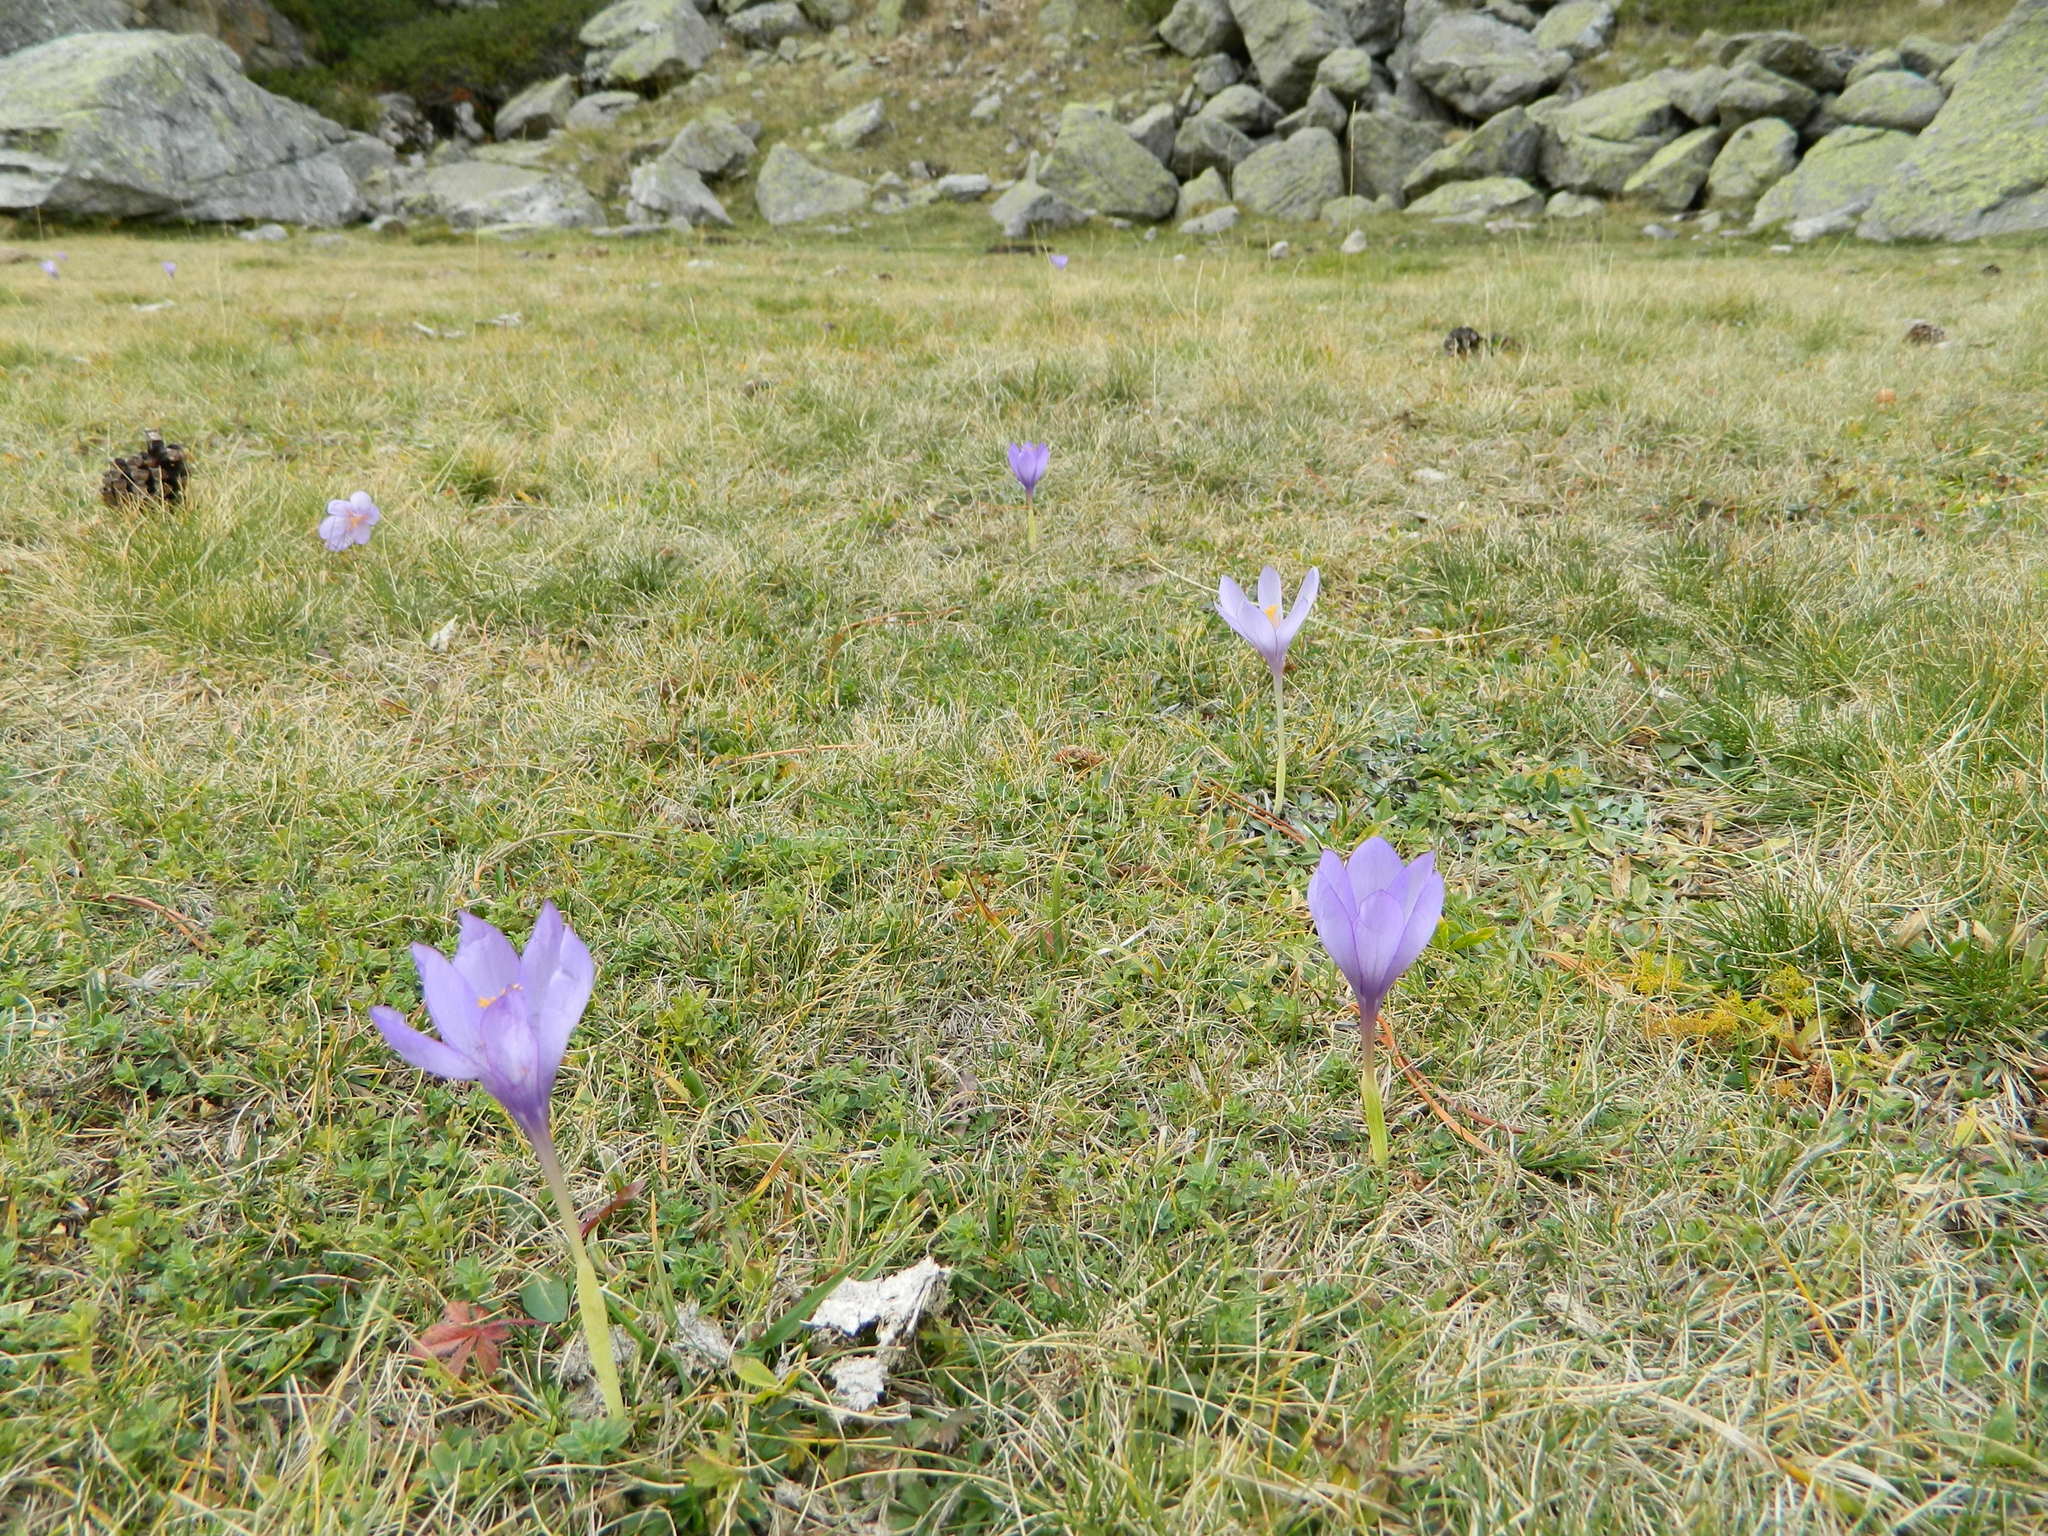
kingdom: Plantae
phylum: Tracheophyta
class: Liliopsida
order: Asparagales
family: Iridaceae
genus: Crocus
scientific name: Crocus nudiflorus
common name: Autumn crocus
